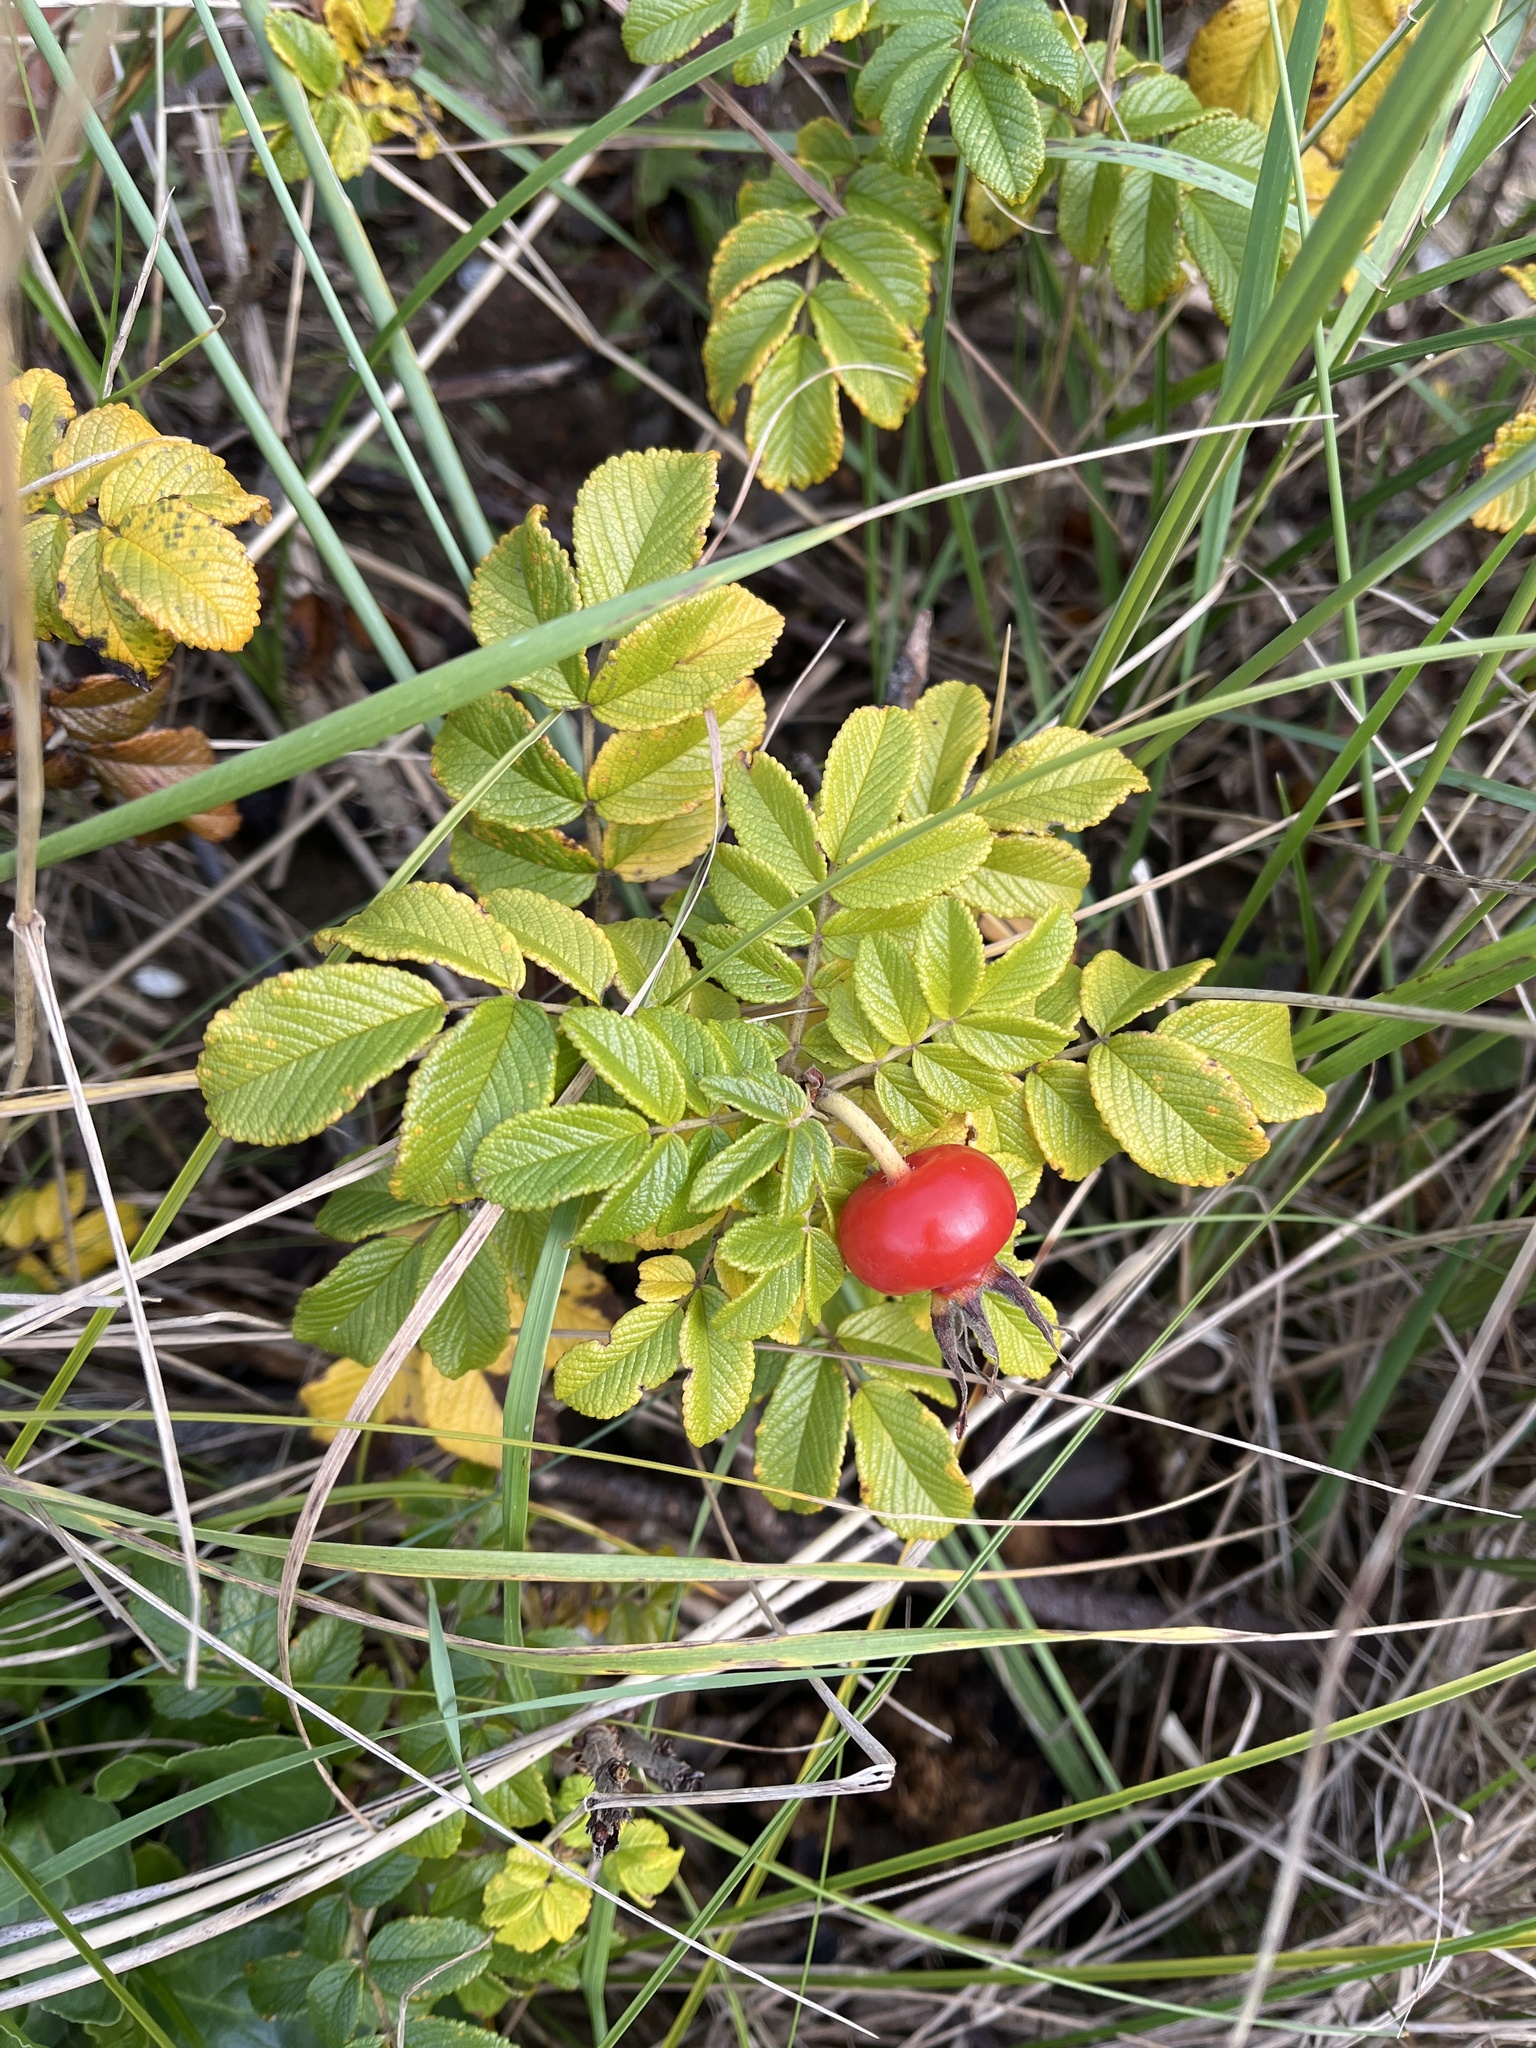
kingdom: Plantae
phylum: Tracheophyta
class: Magnoliopsida
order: Rosales
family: Rosaceae
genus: Rosa
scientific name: Rosa rugosa
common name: Japanese rose
